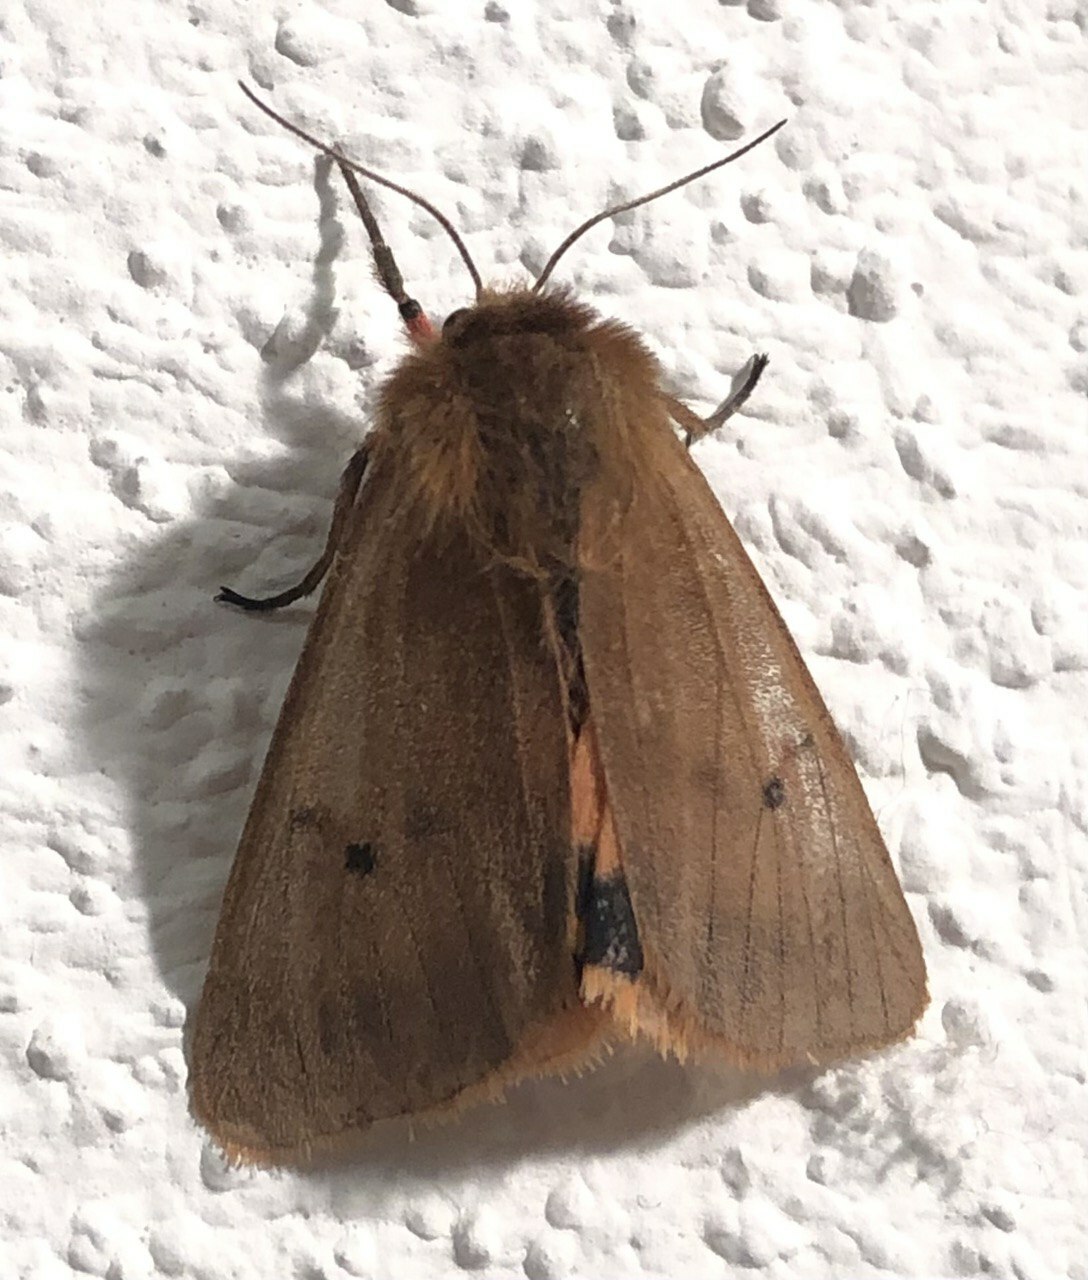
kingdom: Animalia
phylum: Arthropoda
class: Insecta
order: Lepidoptera
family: Erebidae
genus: Phragmatobia
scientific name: Phragmatobia fuliginosa
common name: Ruby tiger
